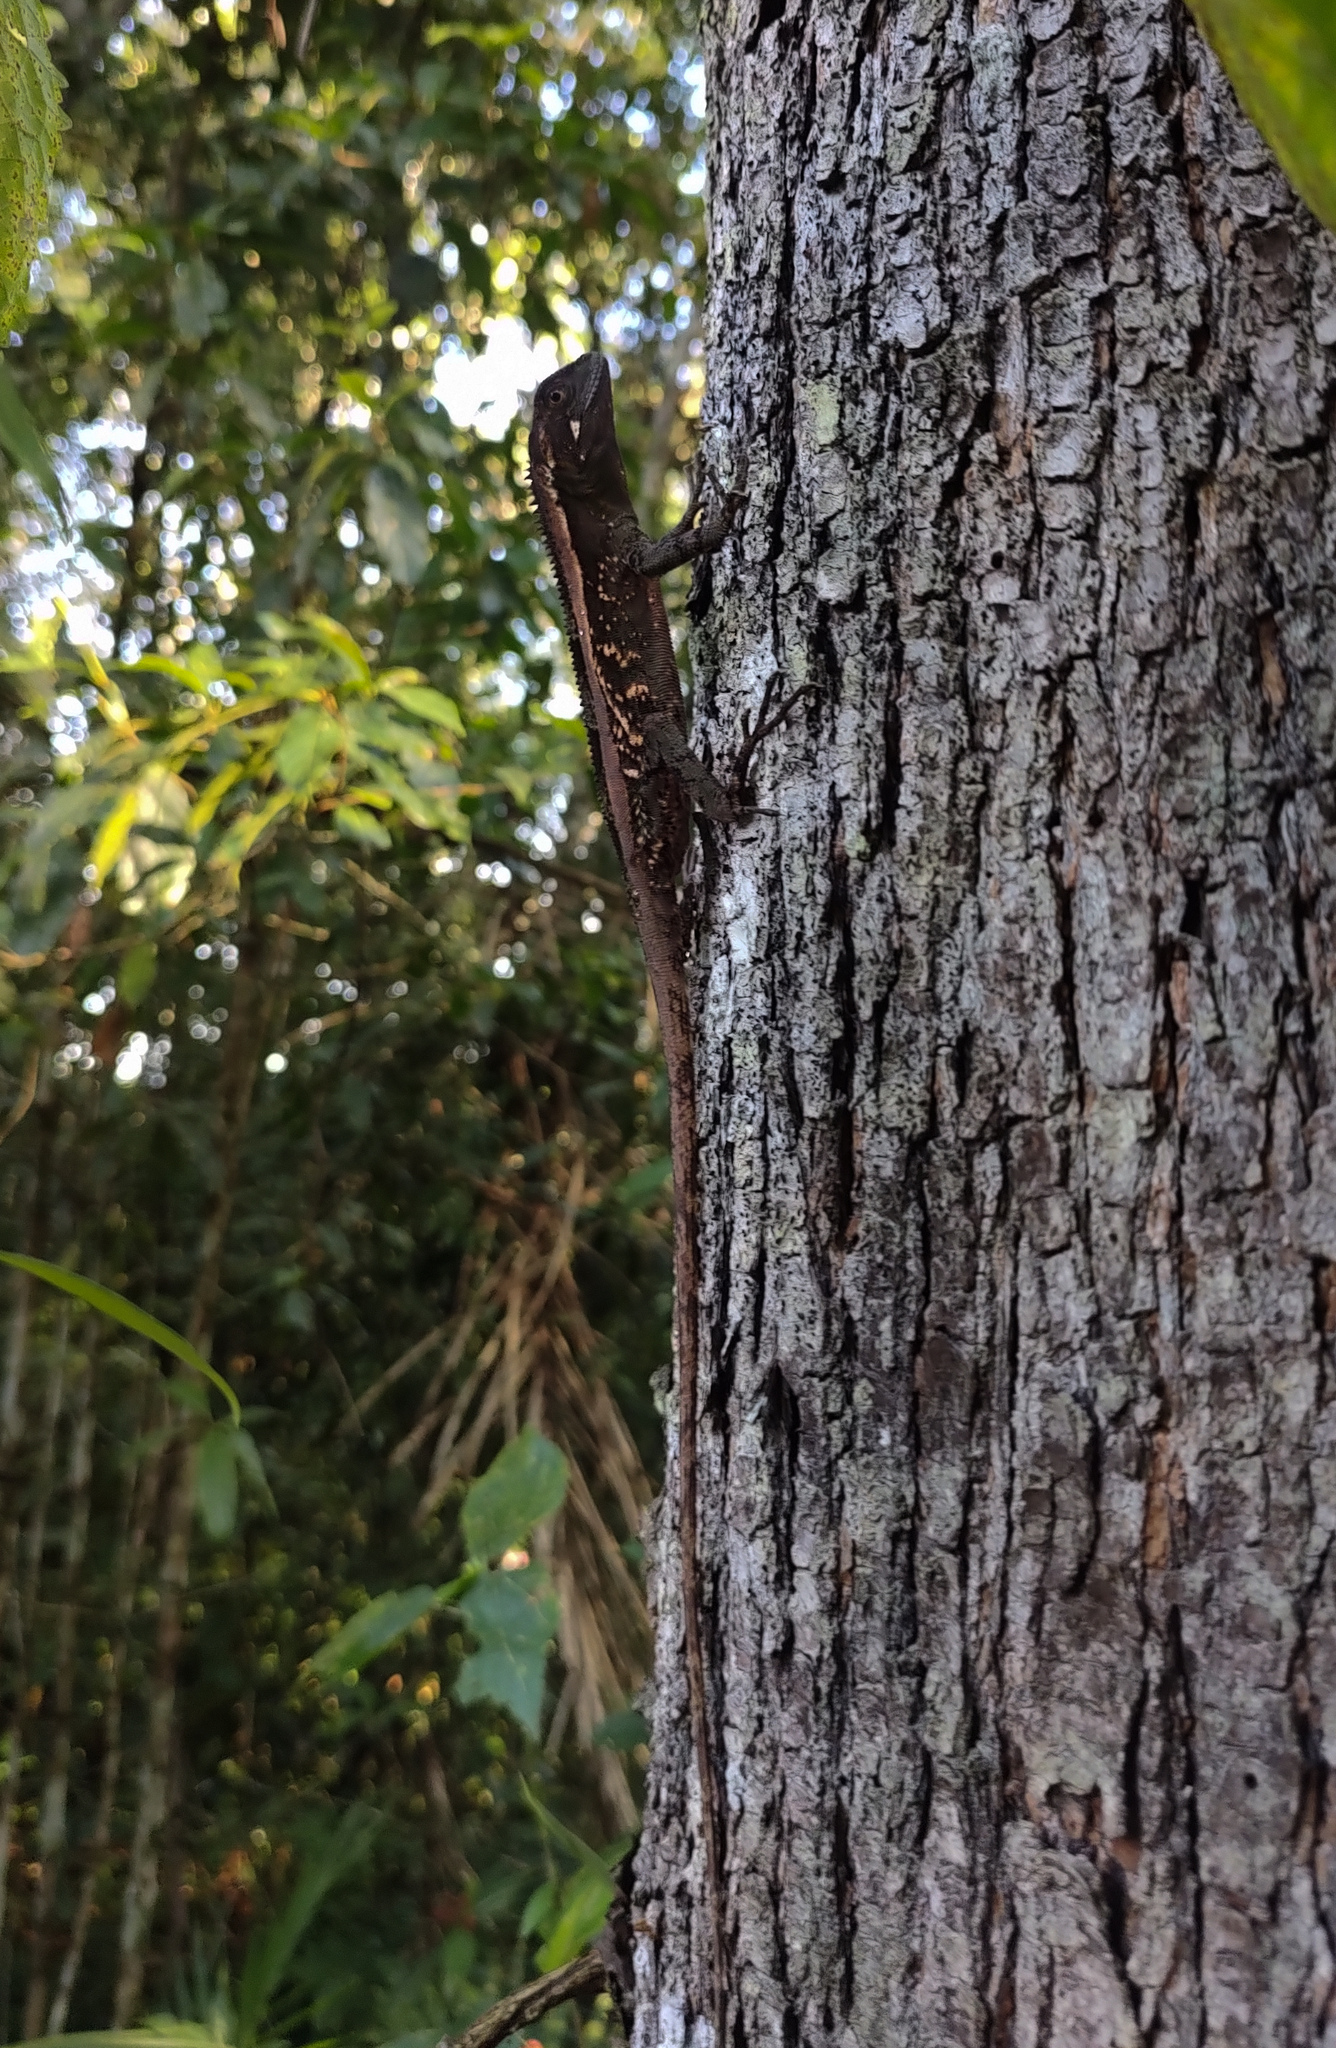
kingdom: Animalia
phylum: Chordata
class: Squamata
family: Leiosauridae
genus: Enyalius
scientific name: Enyalius iheringii
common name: Ihering's fathead anole
